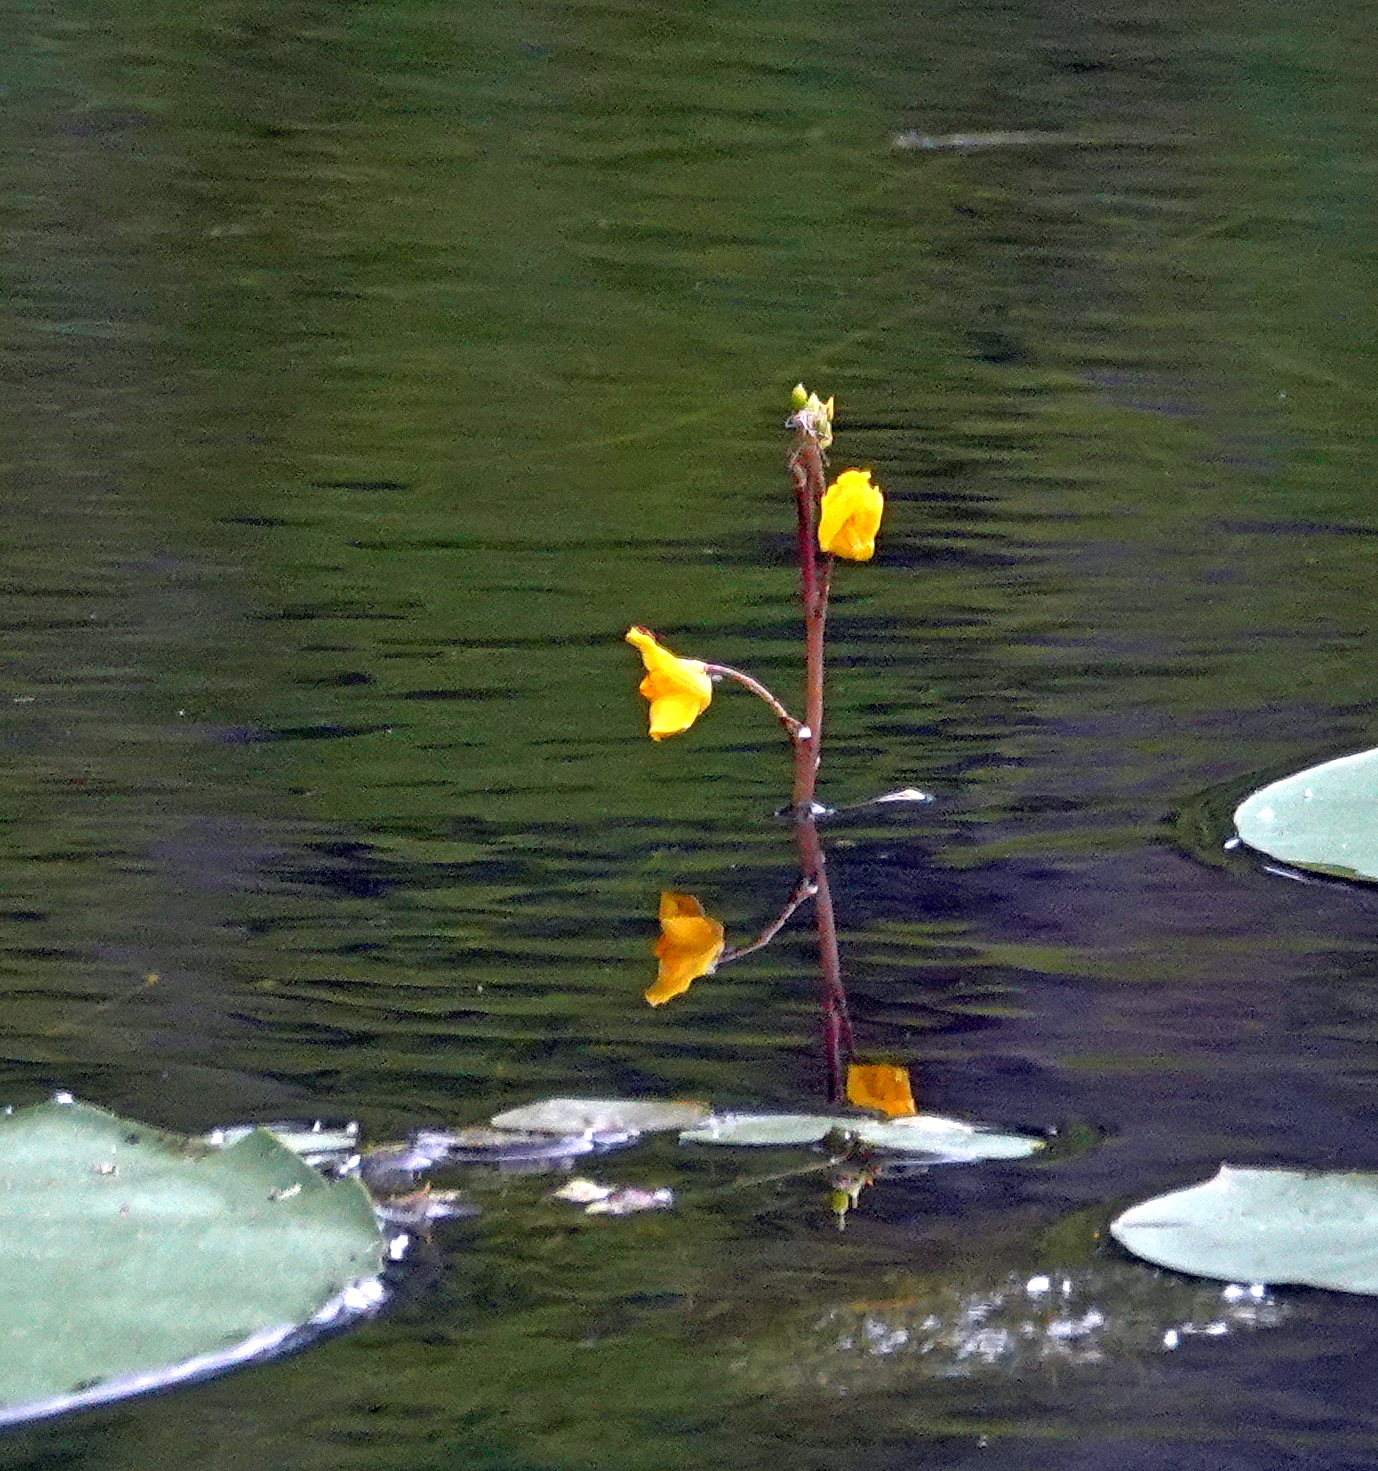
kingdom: Plantae
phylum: Tracheophyta
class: Magnoliopsida
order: Lamiales
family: Lentibulariaceae
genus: Utricularia
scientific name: Utricularia macrorhiza
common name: Common bladderwort
